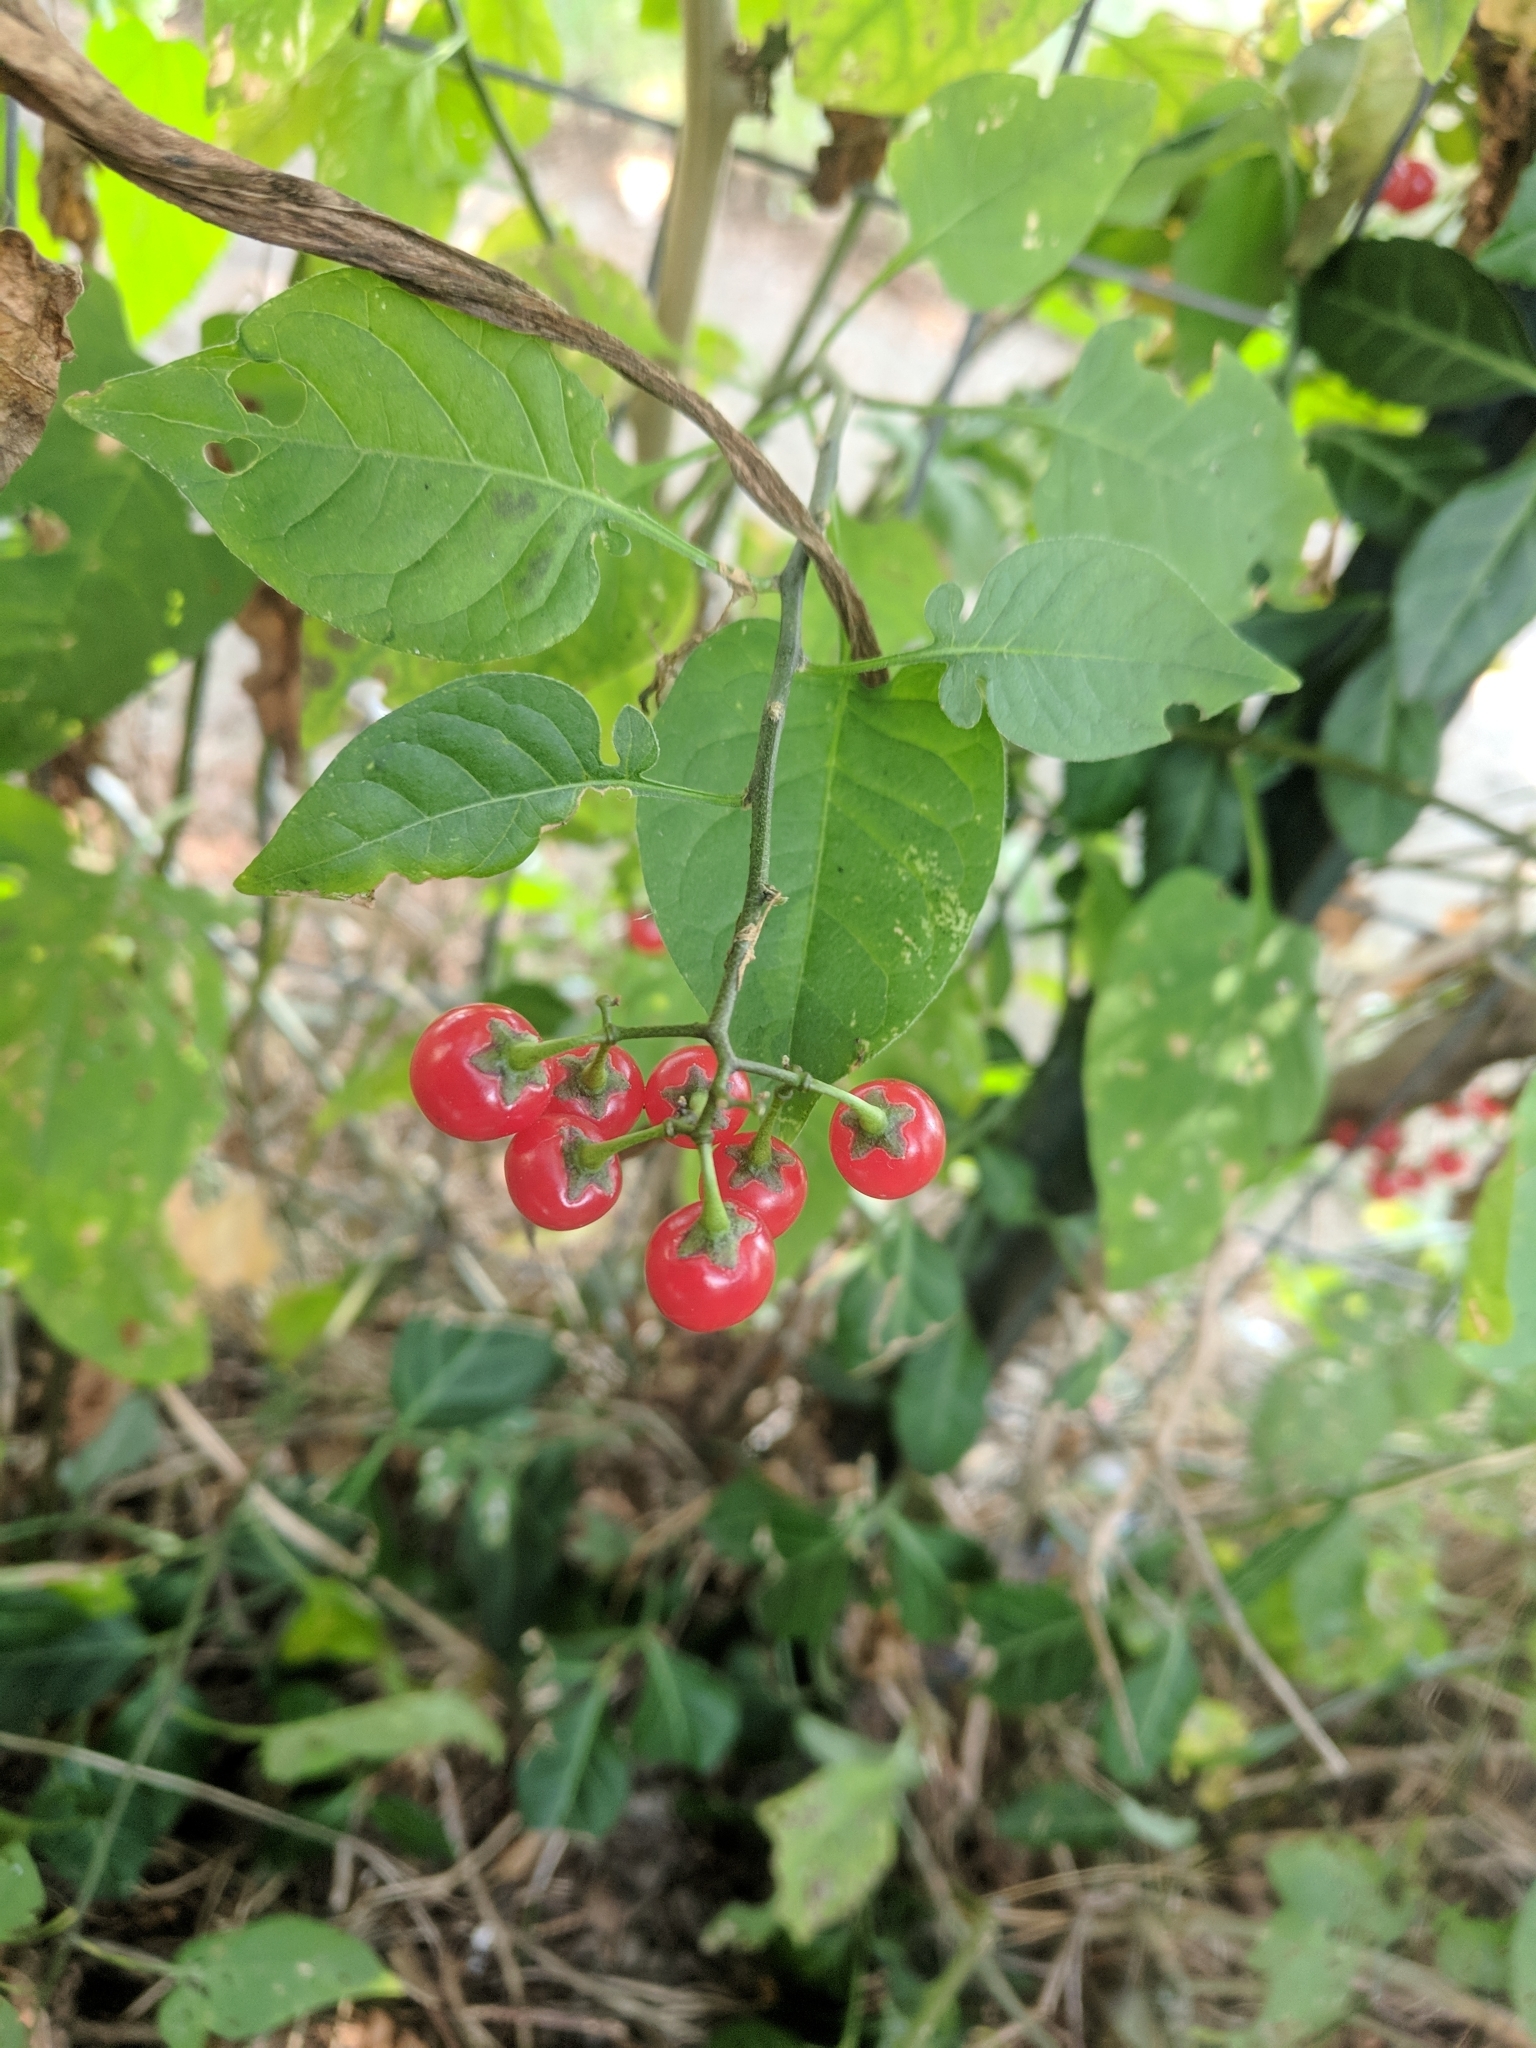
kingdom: Plantae
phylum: Tracheophyta
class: Magnoliopsida
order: Solanales
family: Solanaceae
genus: Solanum
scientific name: Solanum dulcamara
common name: Climbing nightshade
